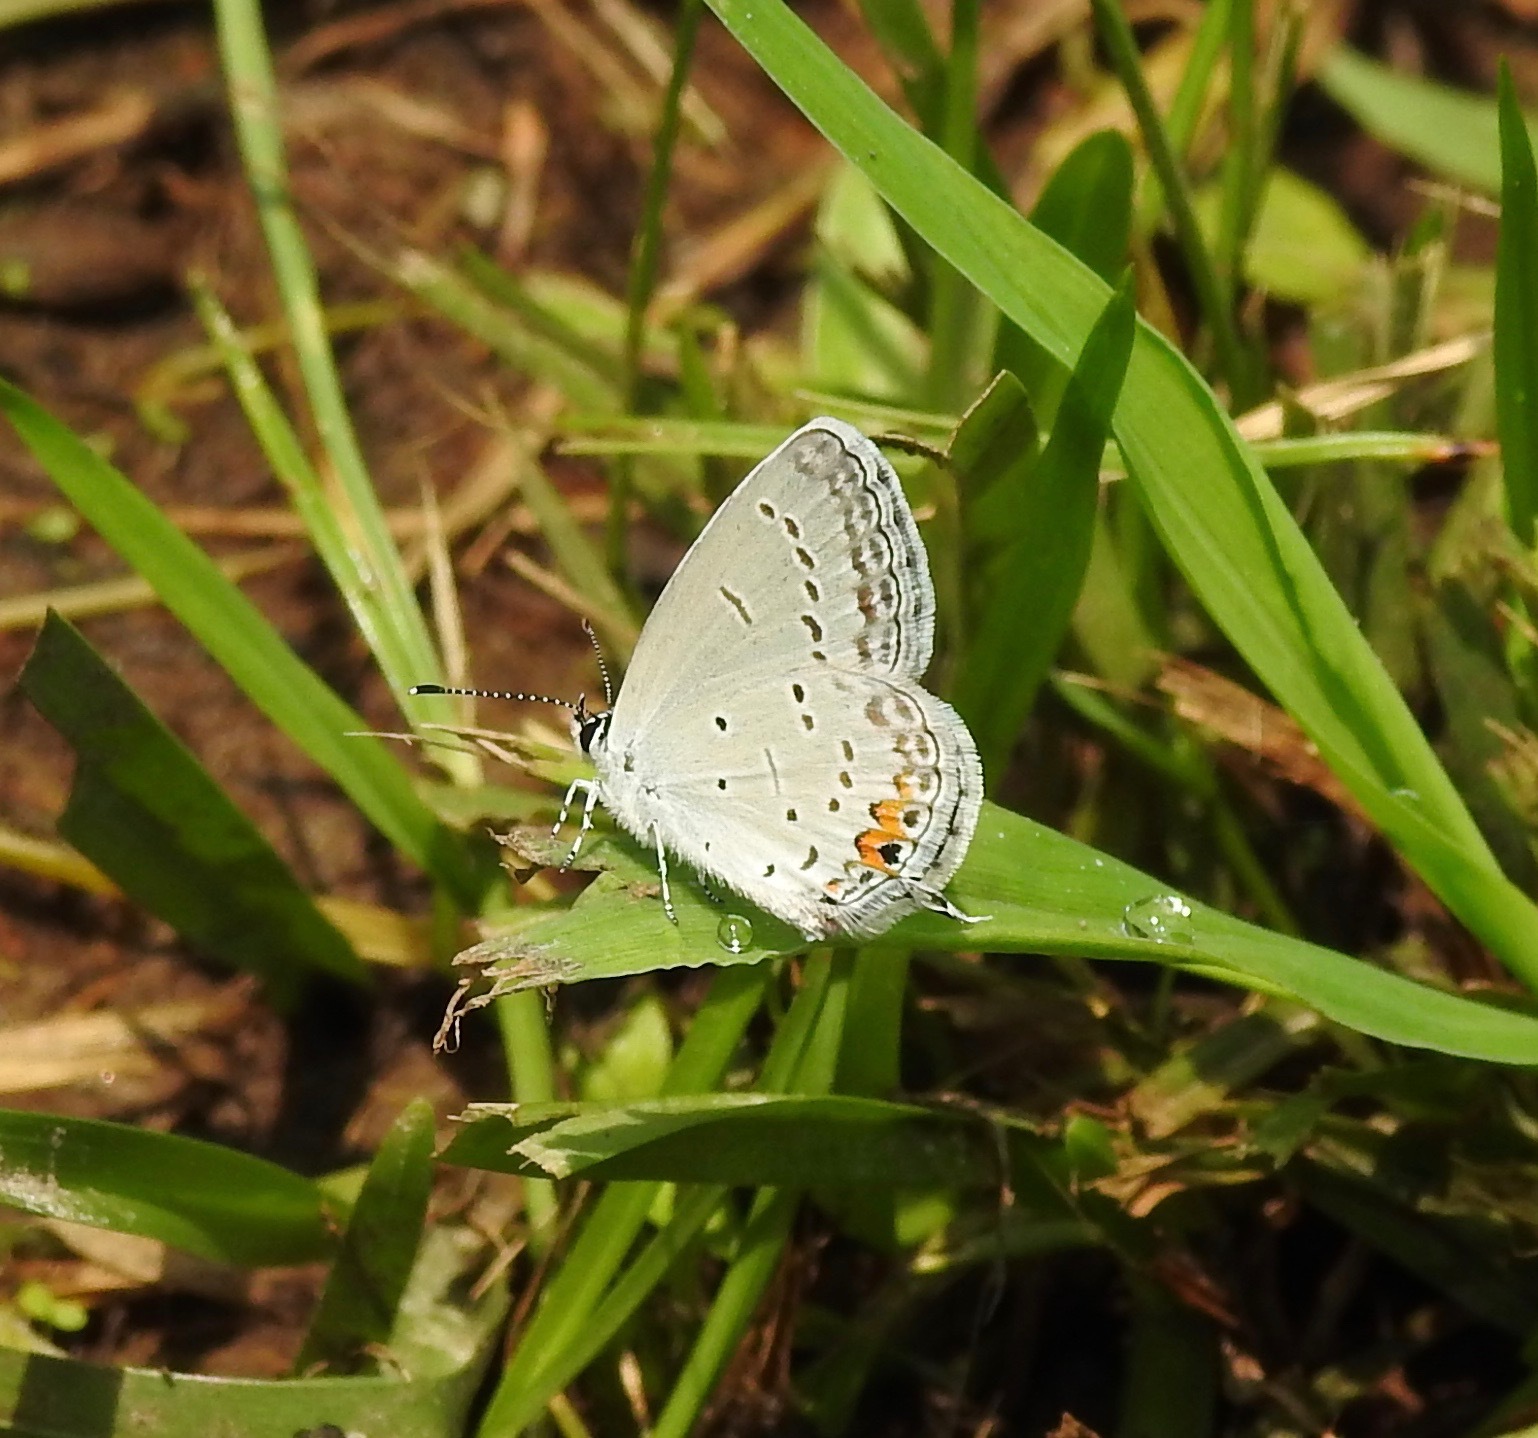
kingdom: Animalia
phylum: Arthropoda
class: Insecta
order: Lepidoptera
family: Lycaenidae
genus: Elkalyce
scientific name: Elkalyce comyntas
